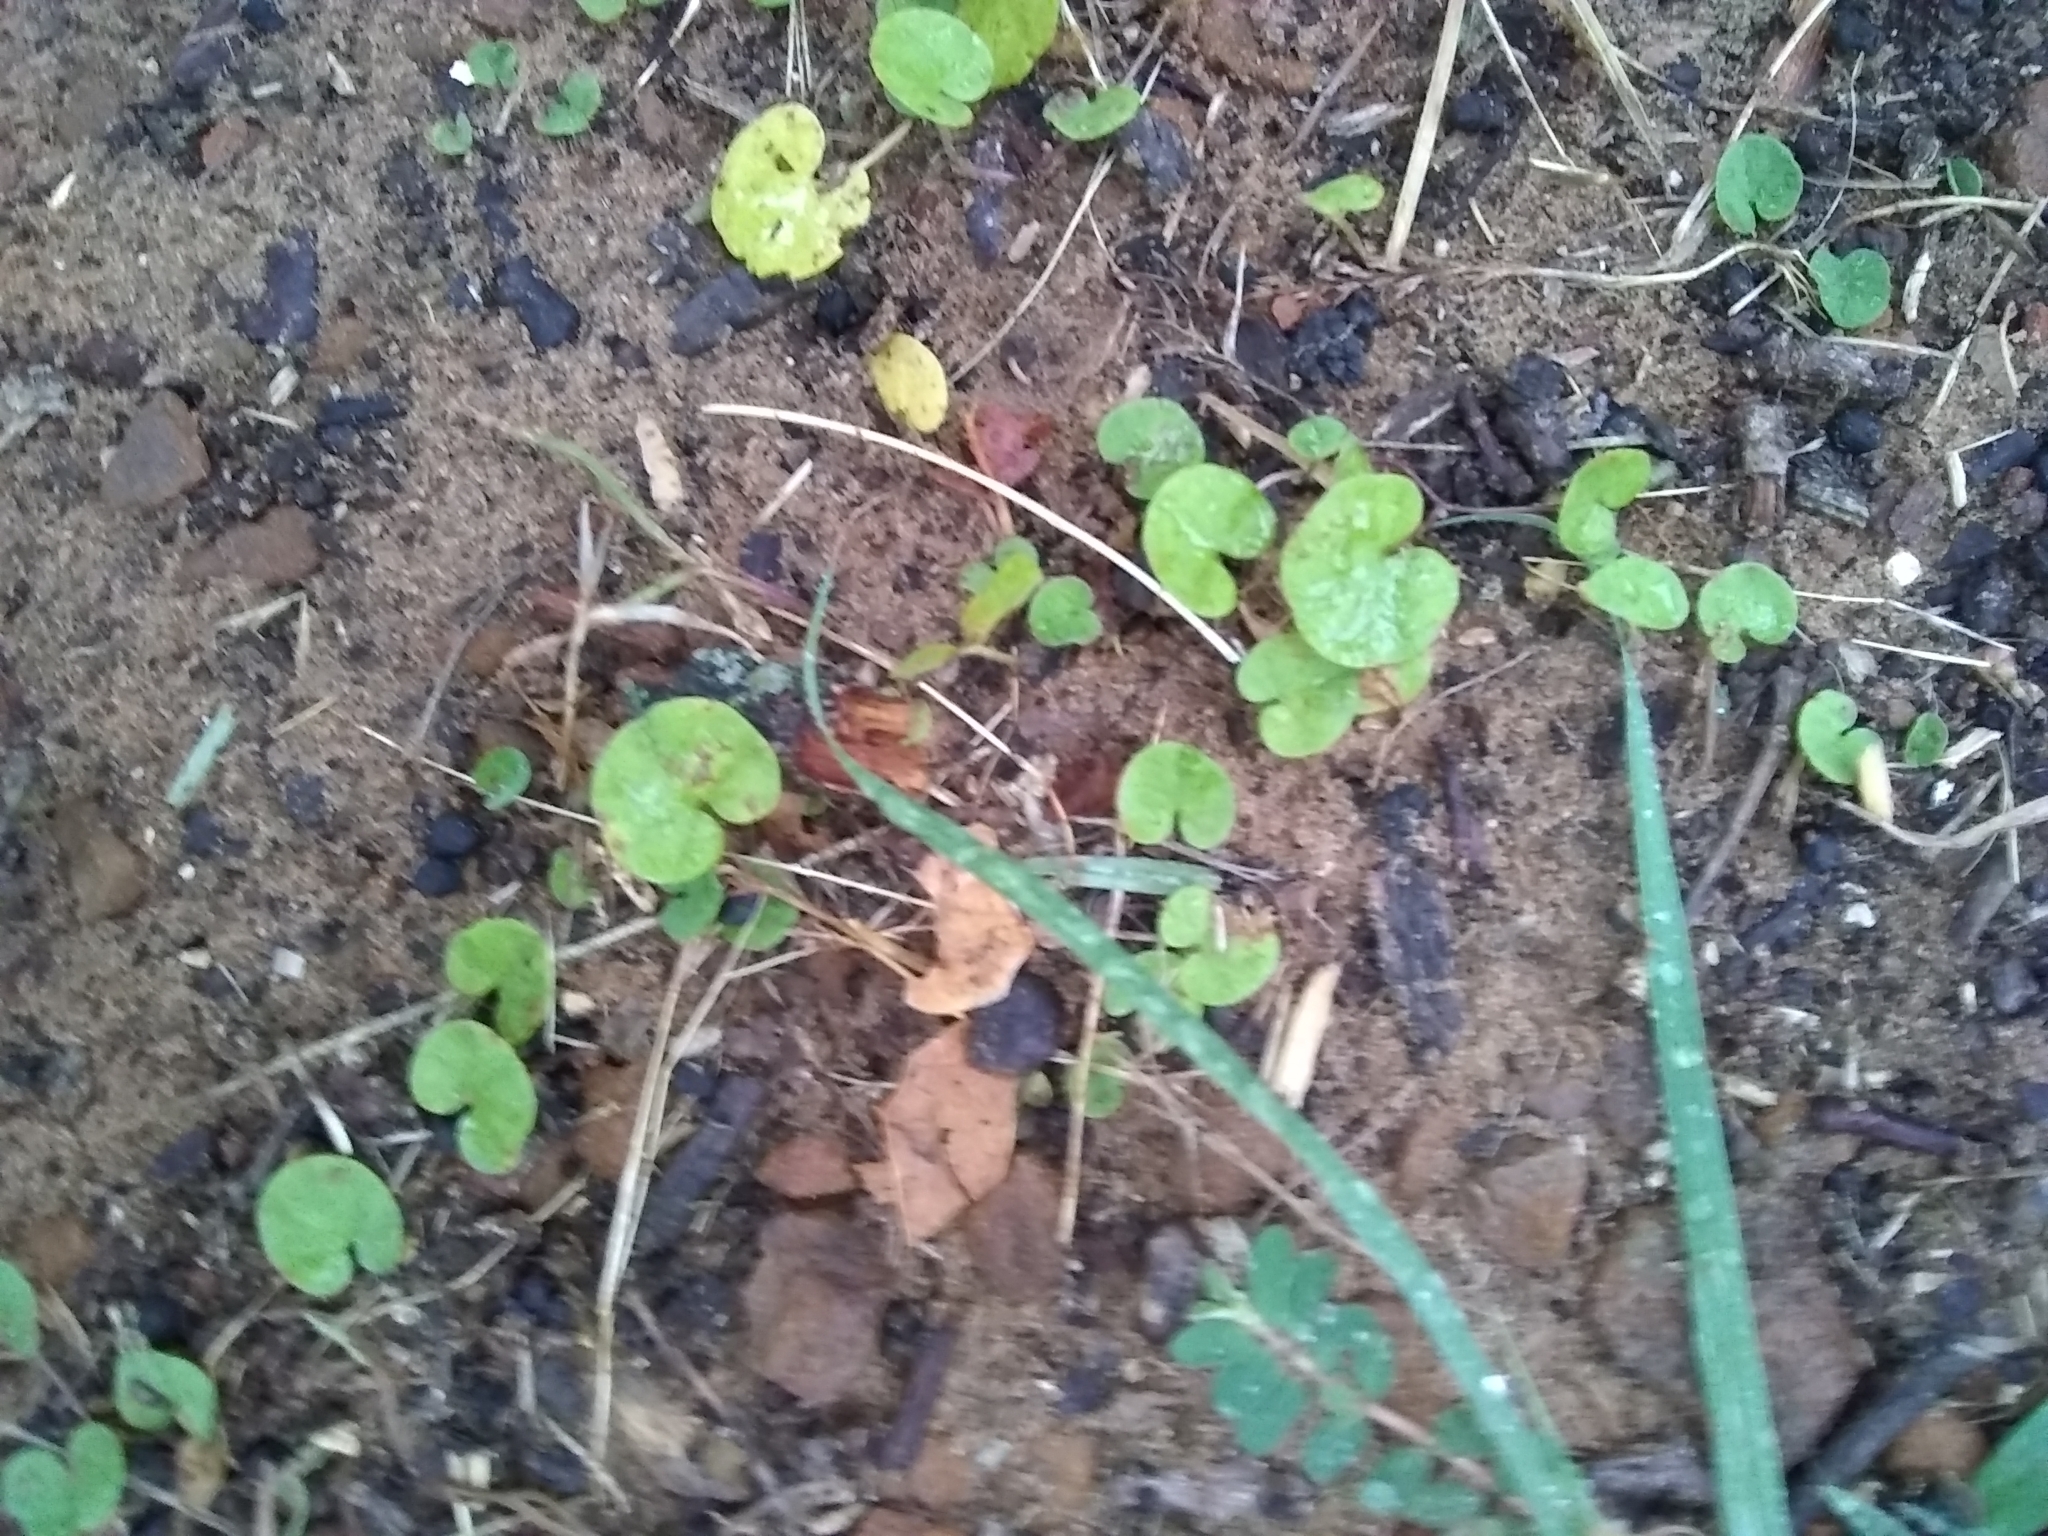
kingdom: Plantae
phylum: Tracheophyta
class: Magnoliopsida
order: Solanales
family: Convolvulaceae
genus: Dichondra
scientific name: Dichondra carolinensis
